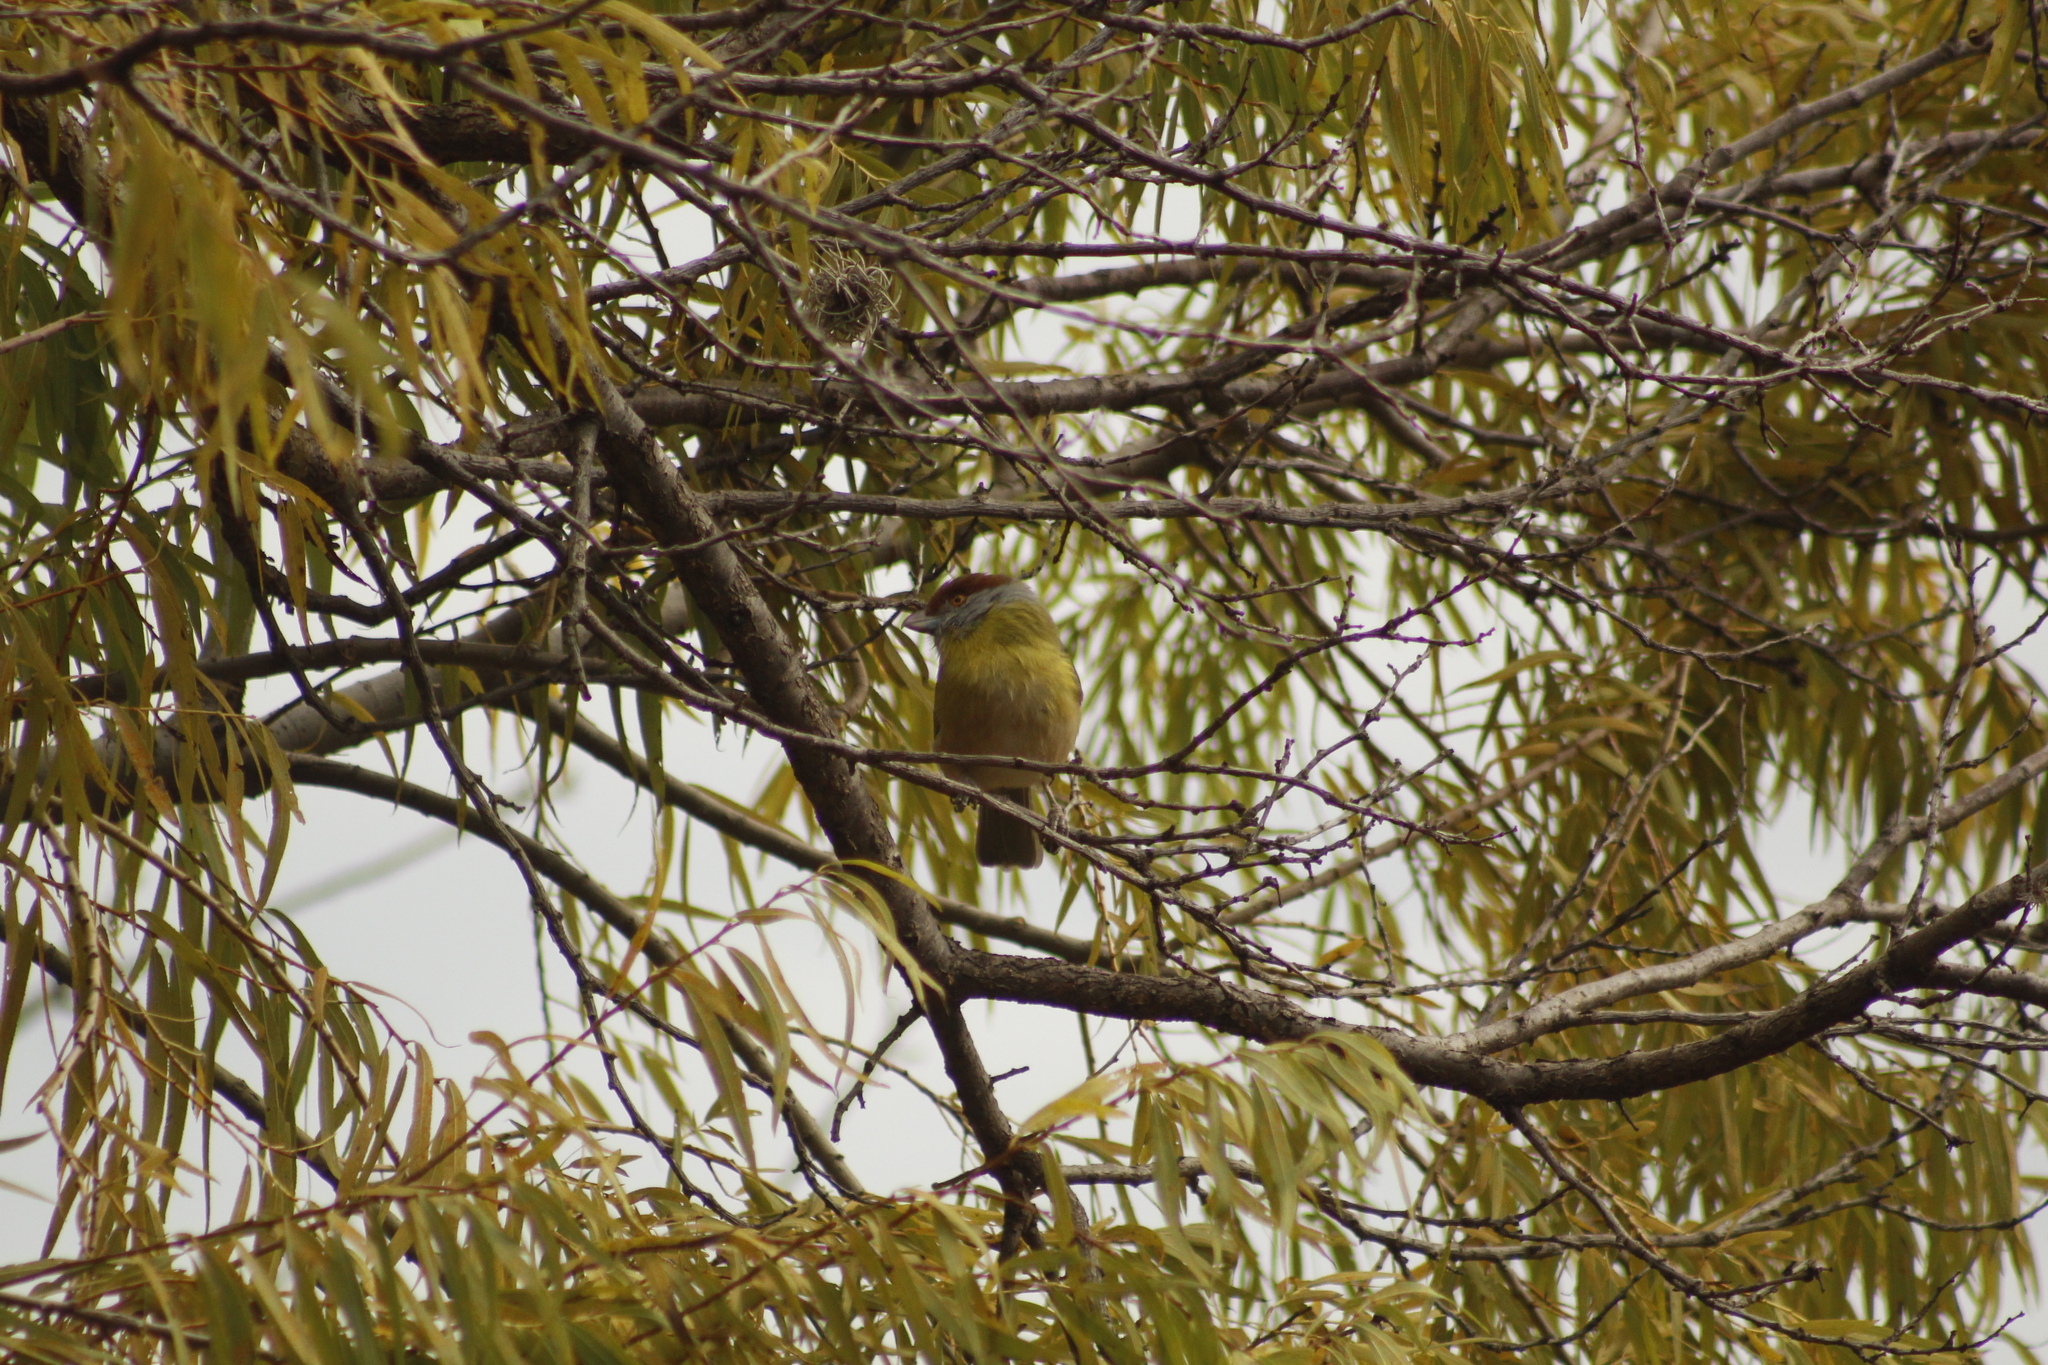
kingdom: Animalia
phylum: Chordata
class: Aves
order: Passeriformes
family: Vireonidae
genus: Cyclarhis
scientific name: Cyclarhis gujanensis
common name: Rufous-browed peppershrike
